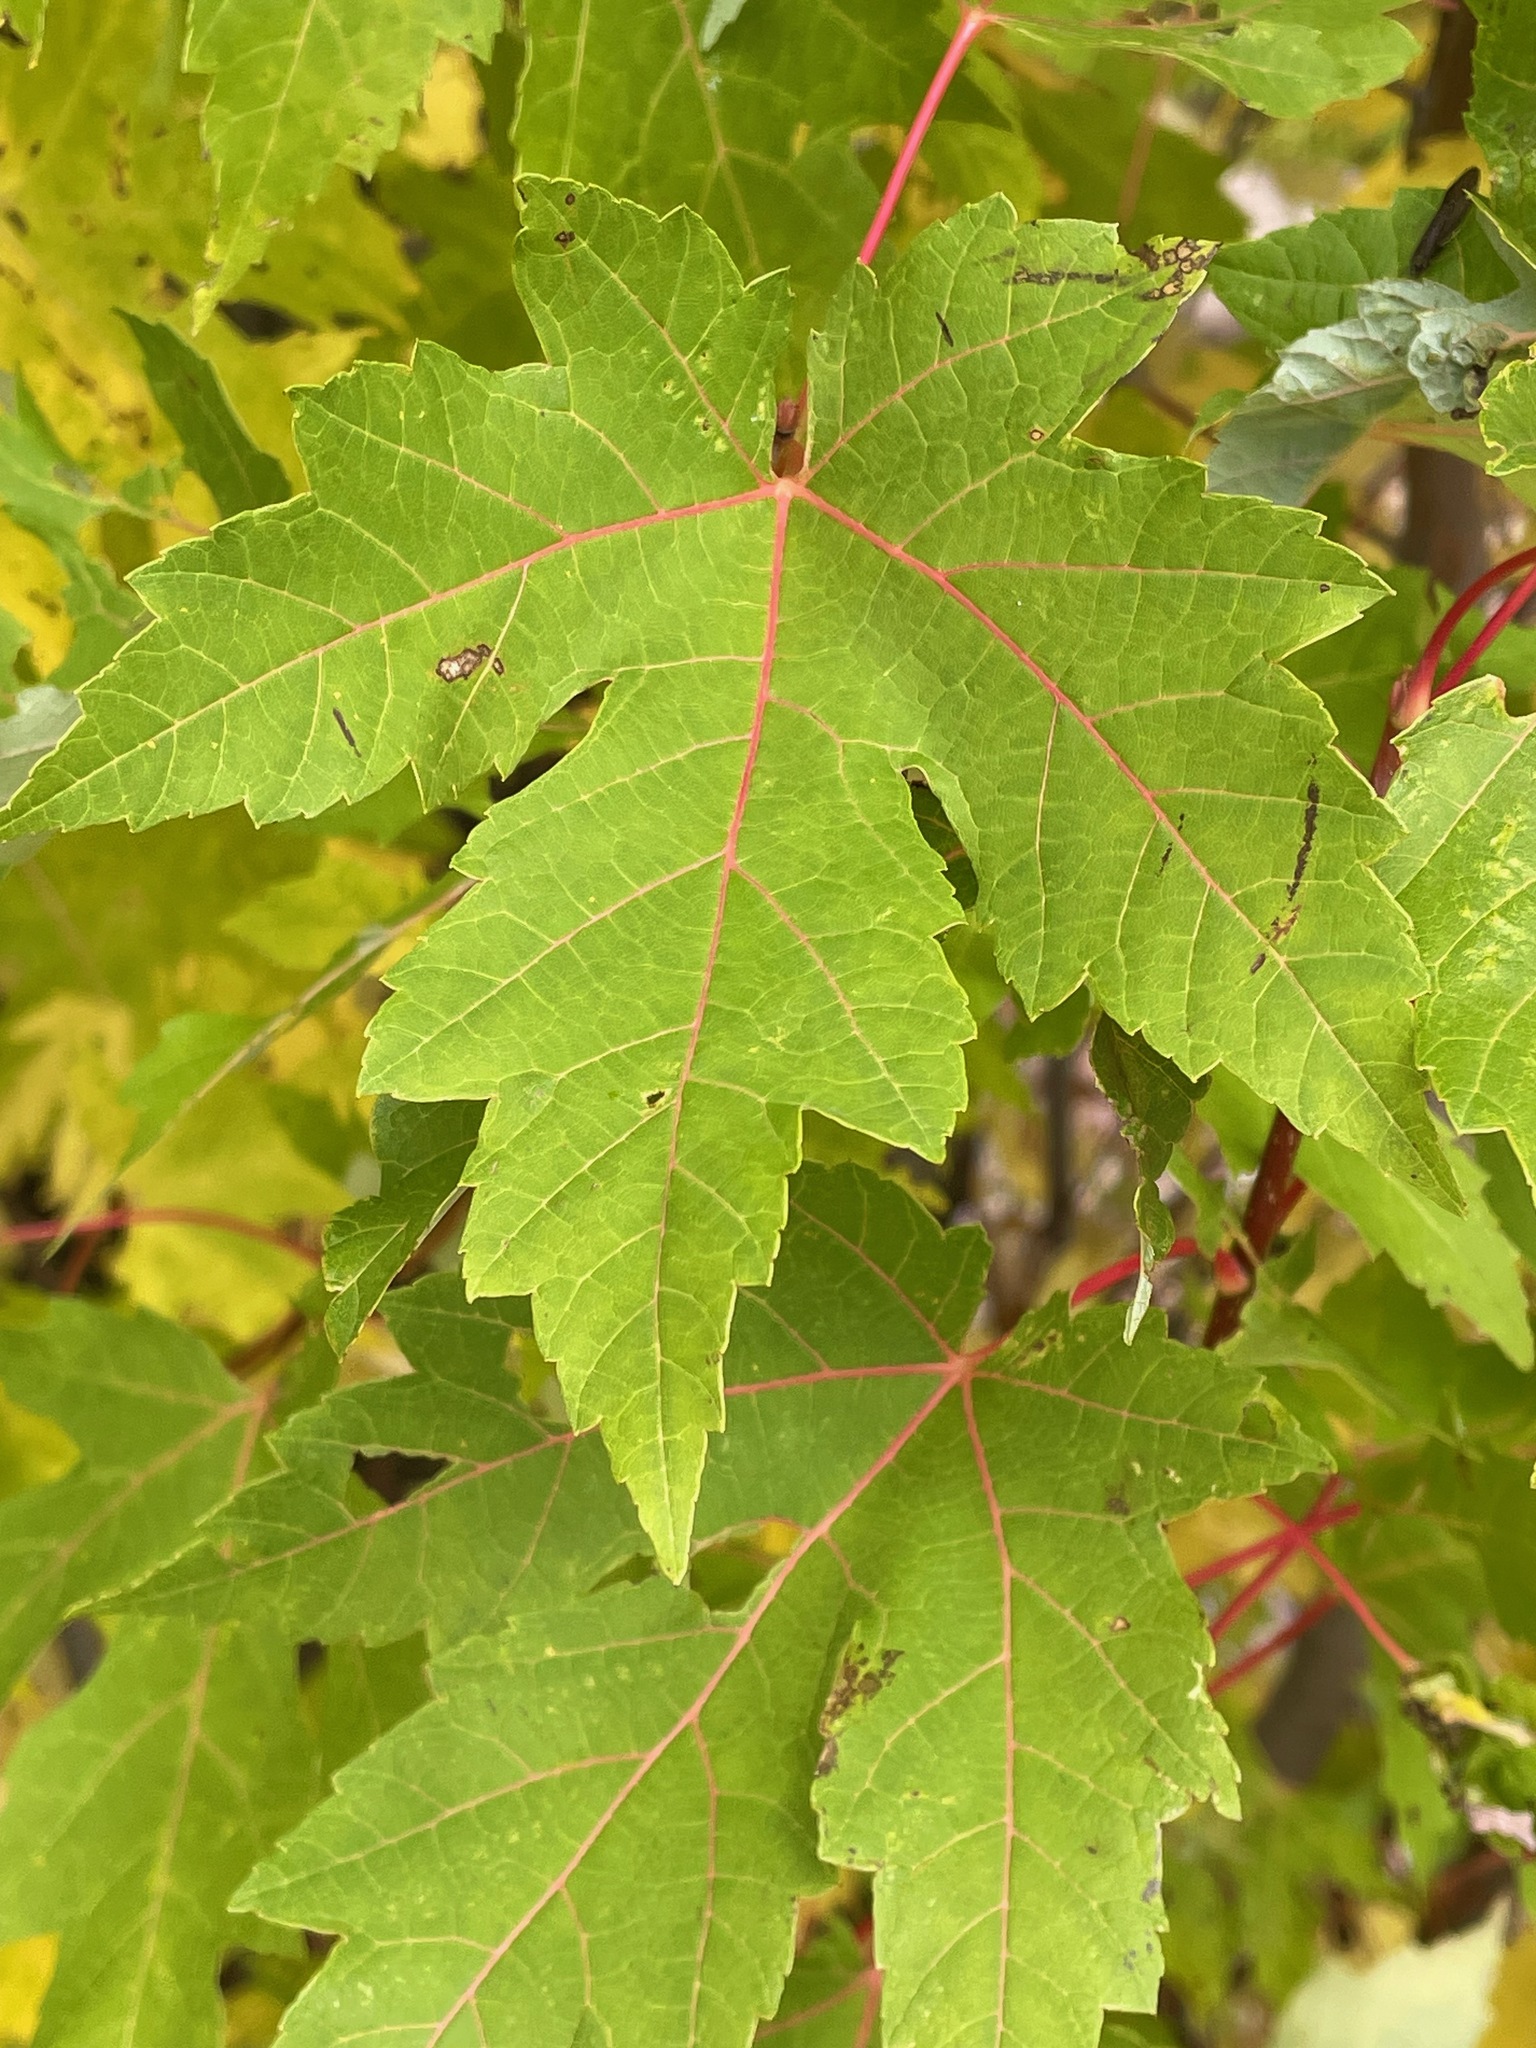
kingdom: Plantae
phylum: Tracheophyta
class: Magnoliopsida
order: Sapindales
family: Sapindaceae
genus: Acer
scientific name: Acer saccharinum
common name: Silver maple
